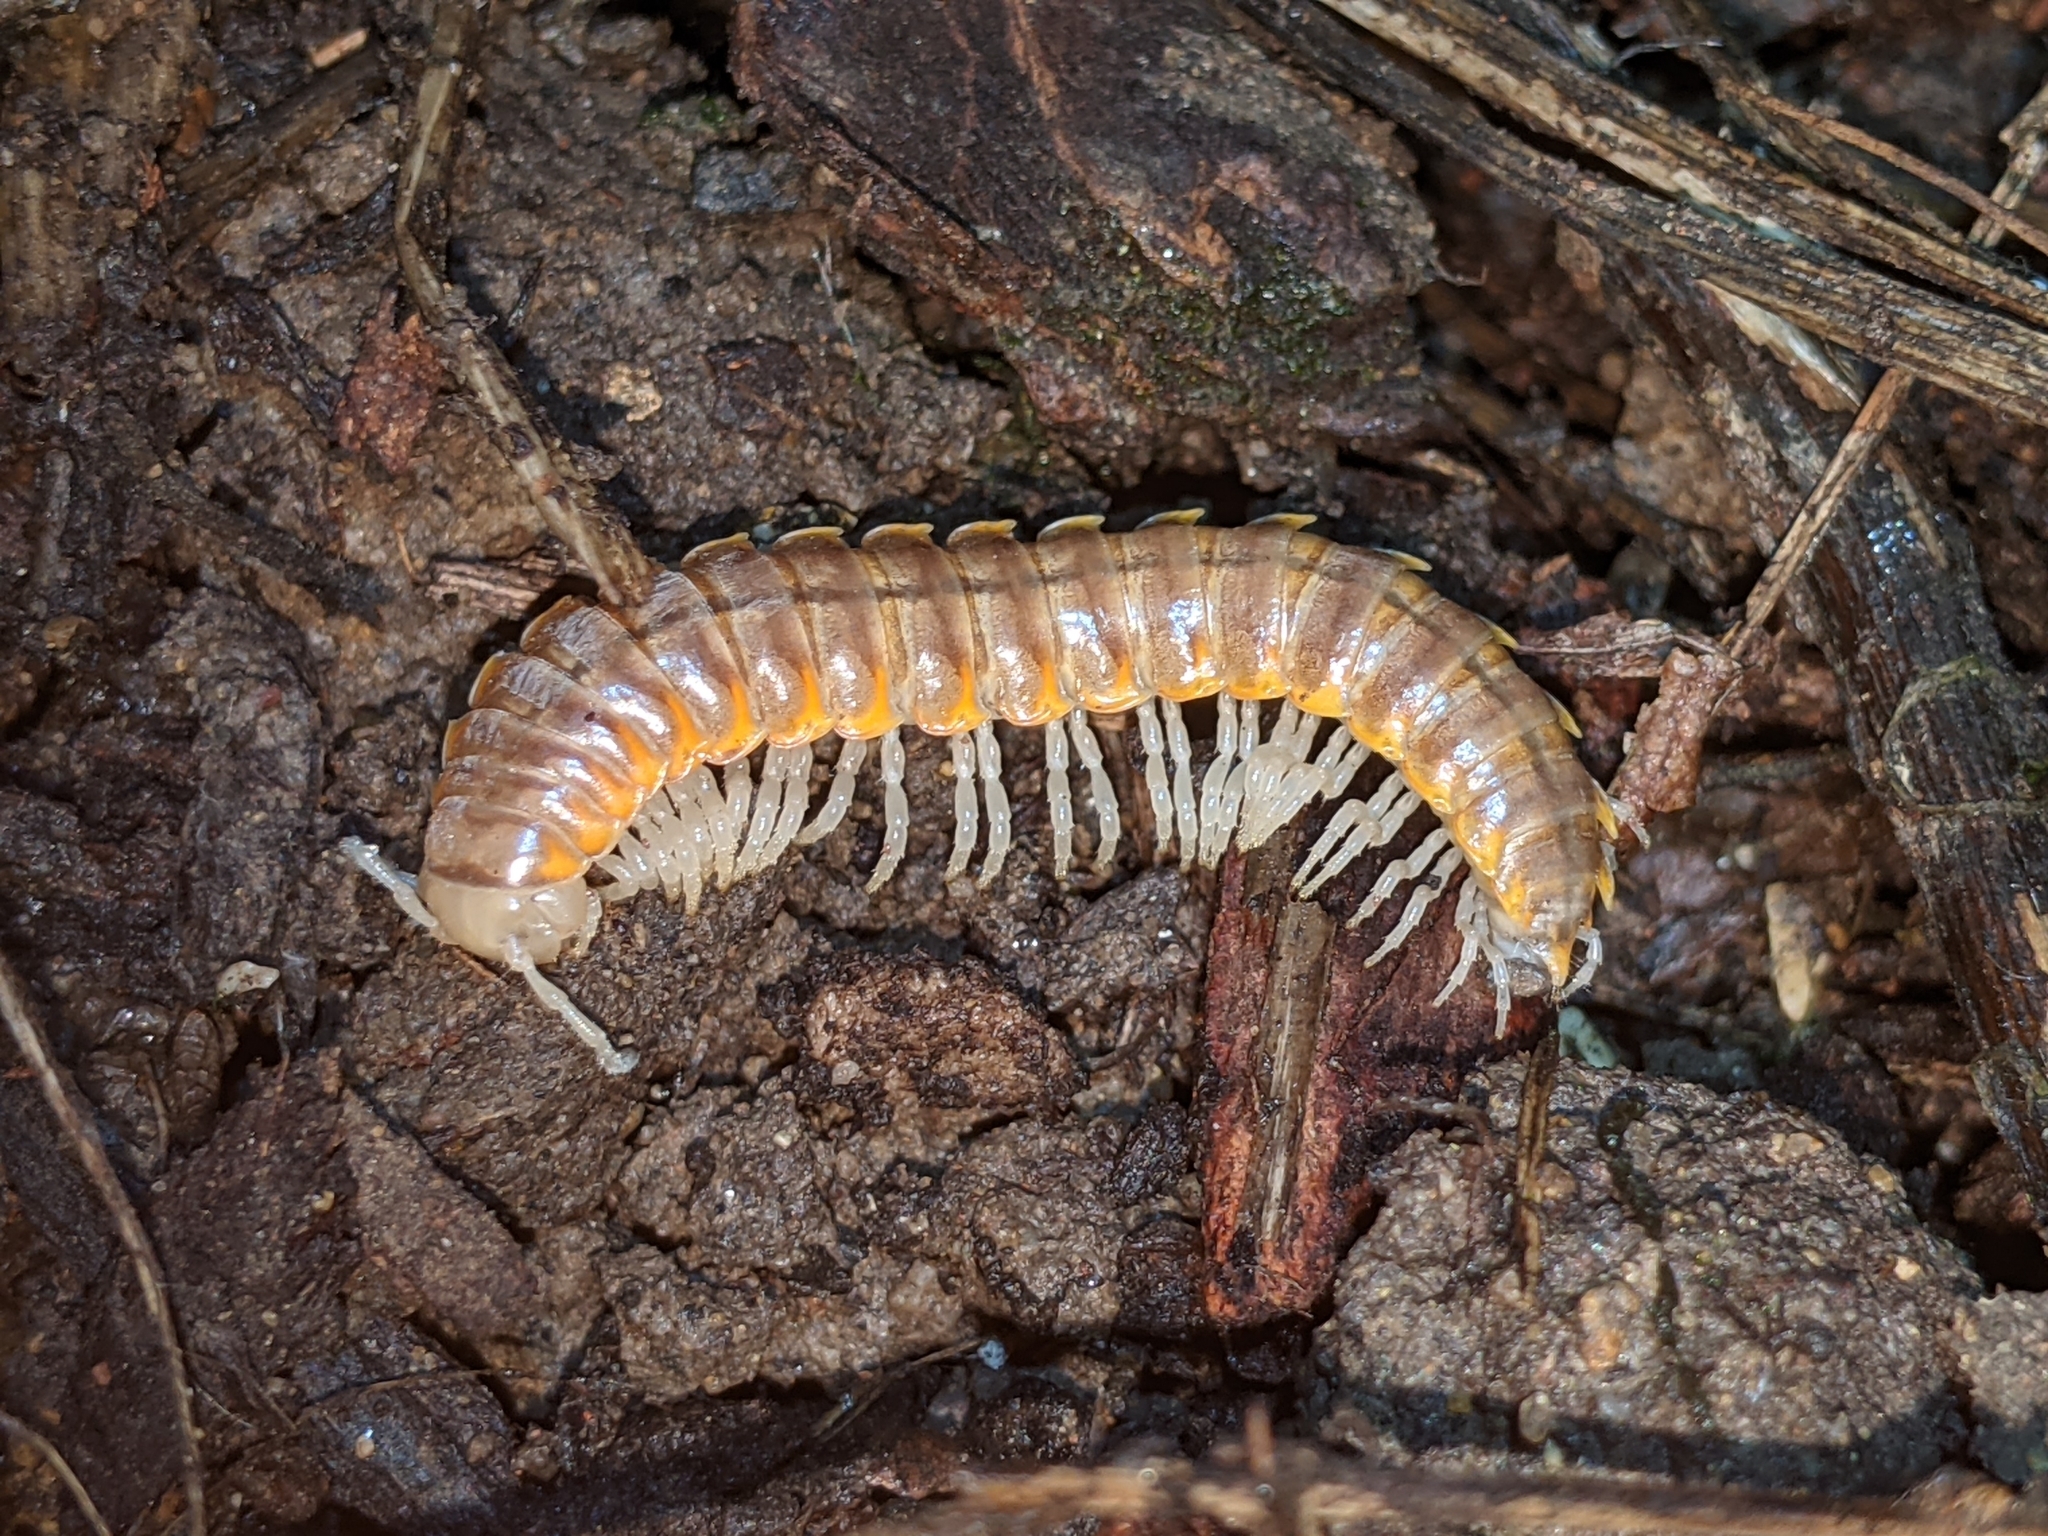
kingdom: Animalia
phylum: Arthropoda
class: Diplopoda
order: Polydesmida
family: Xystodesmidae
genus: Xystocheir
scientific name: Xystocheir dissecta
